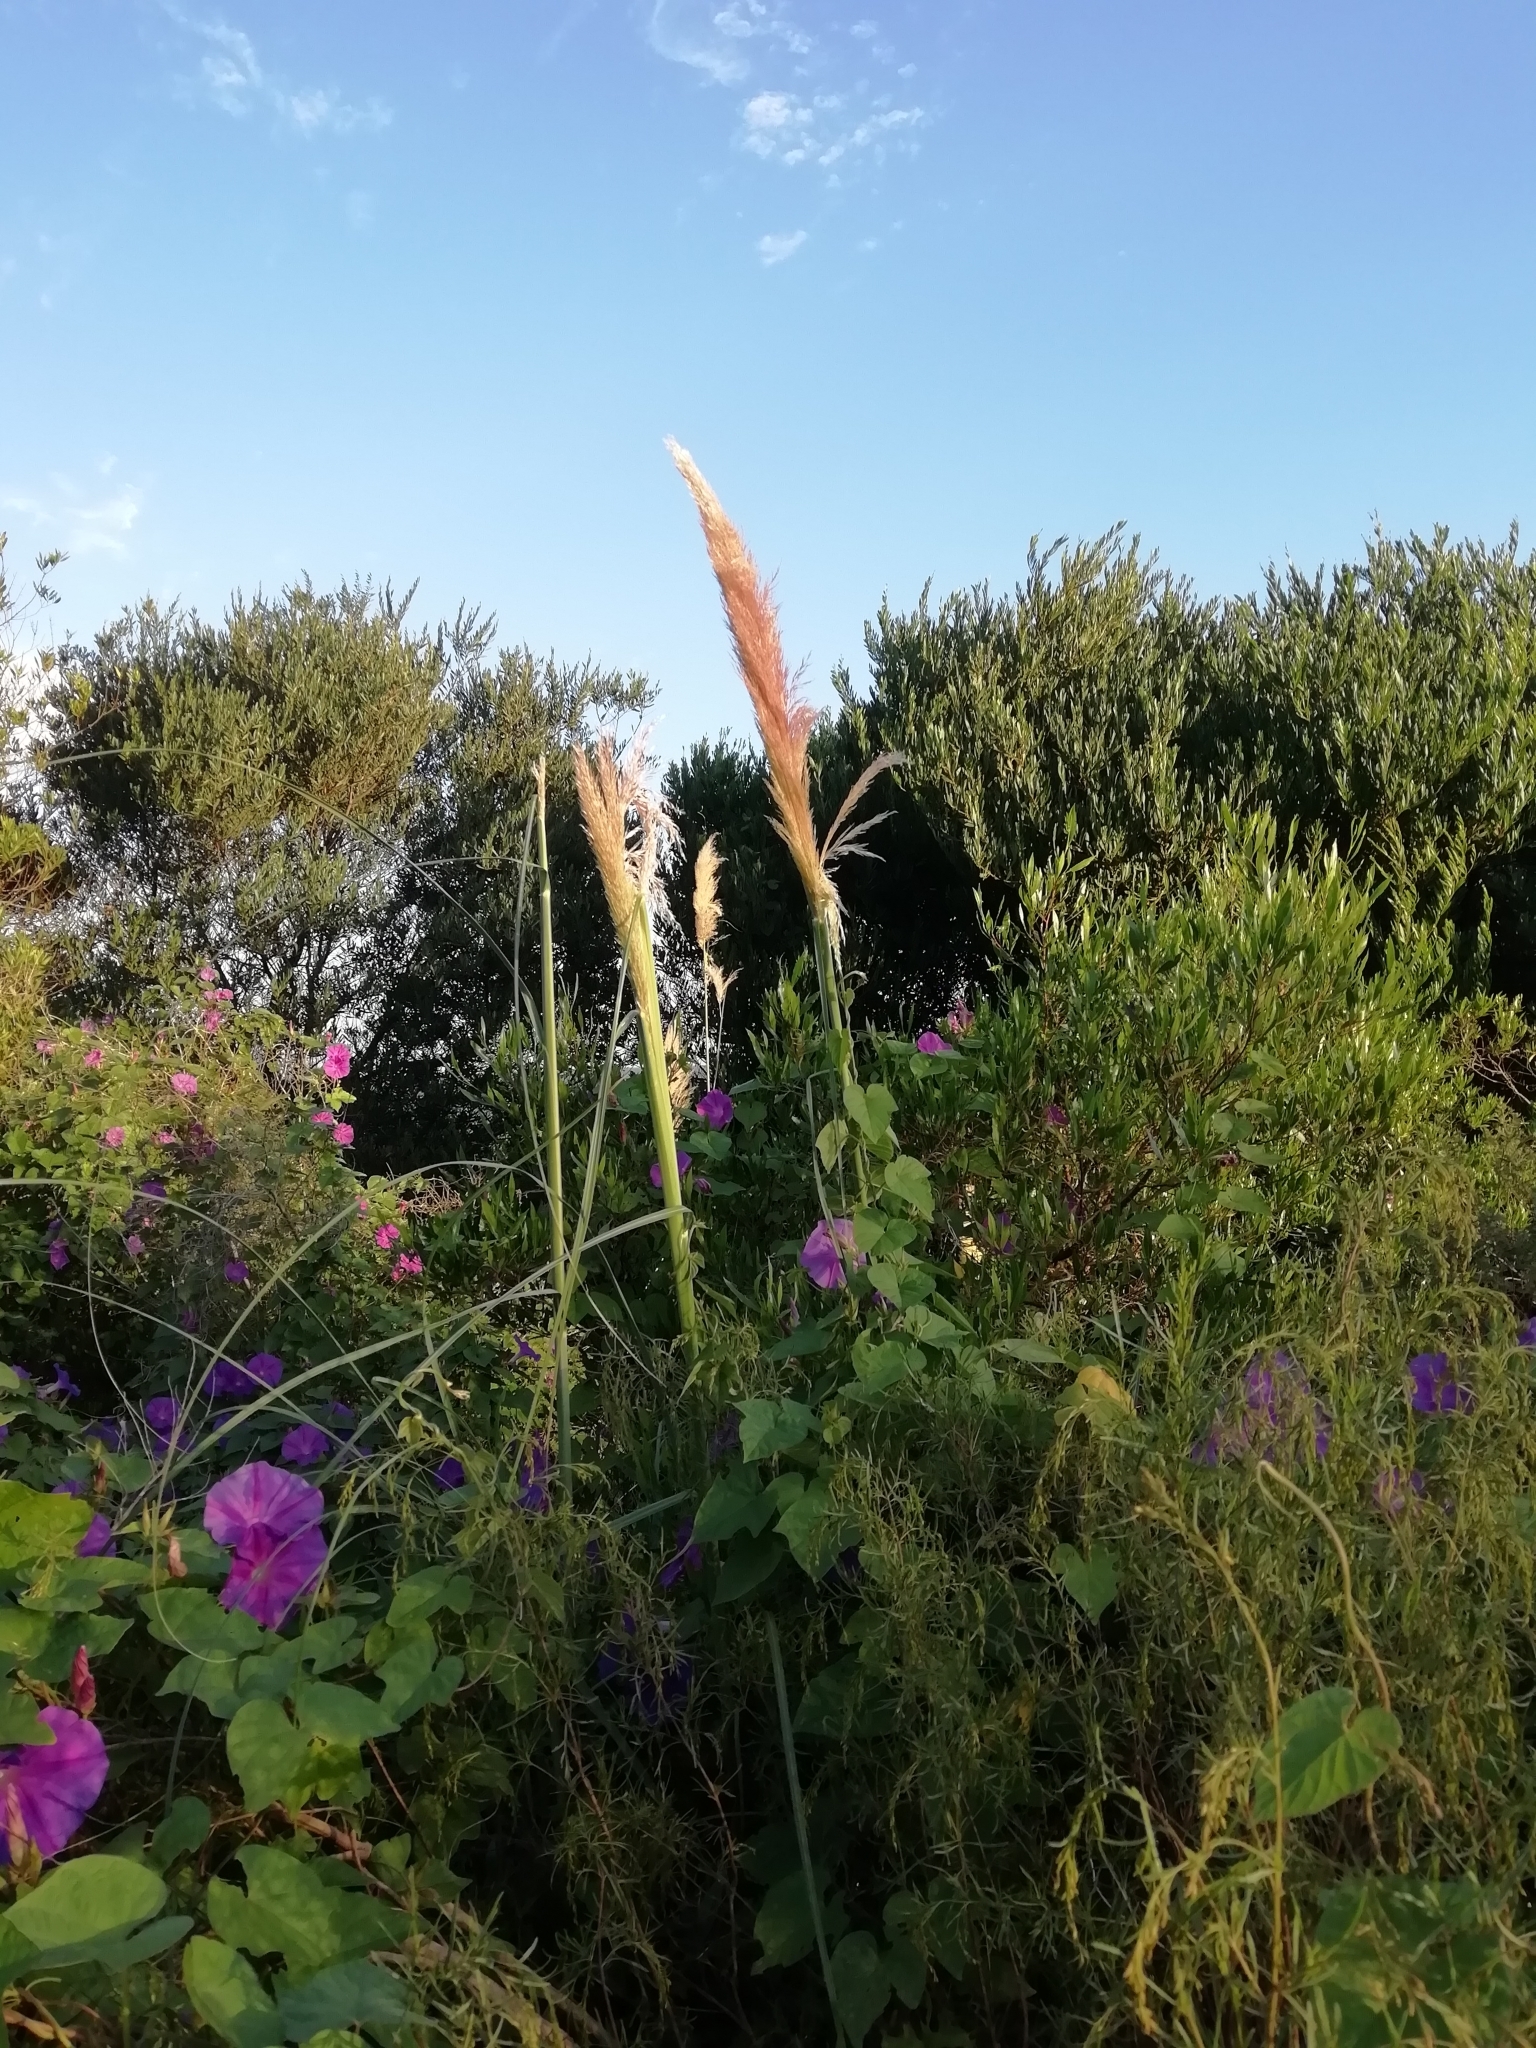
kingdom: Plantae
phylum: Tracheophyta
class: Liliopsida
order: Poales
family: Poaceae
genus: Cortaderia
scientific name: Cortaderia selloana
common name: Uruguayan pampas grass
